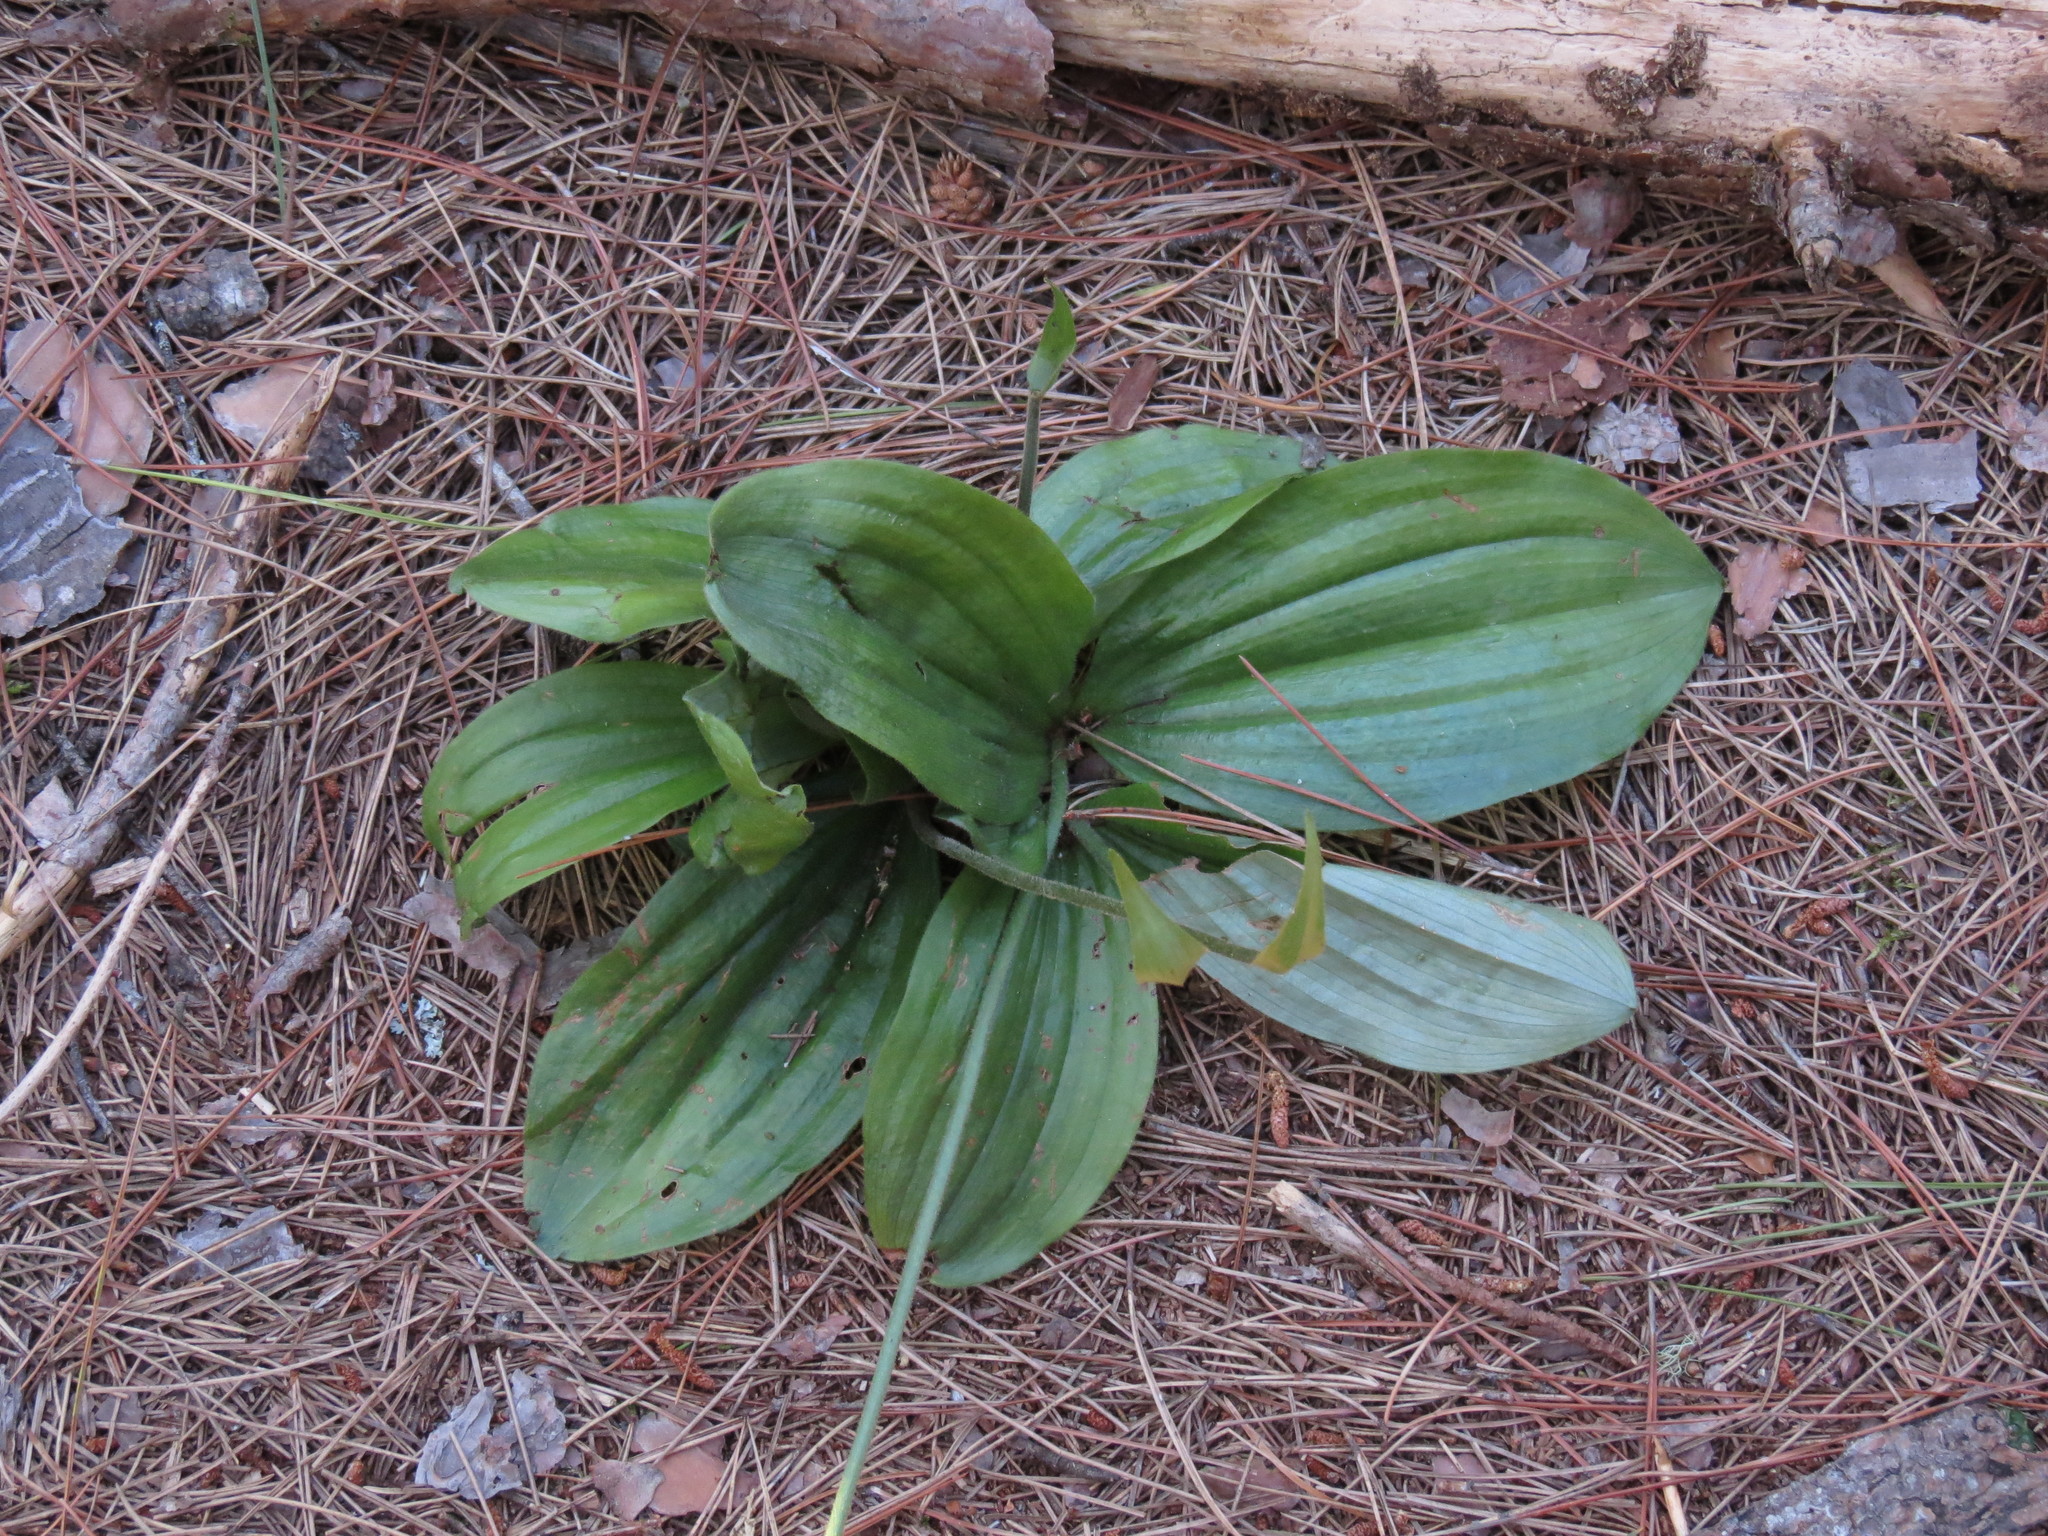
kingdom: Plantae
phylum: Tracheophyta
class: Liliopsida
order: Asparagales
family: Orchidaceae
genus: Cypripedium
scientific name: Cypripedium acaule
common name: Pink lady's-slipper
